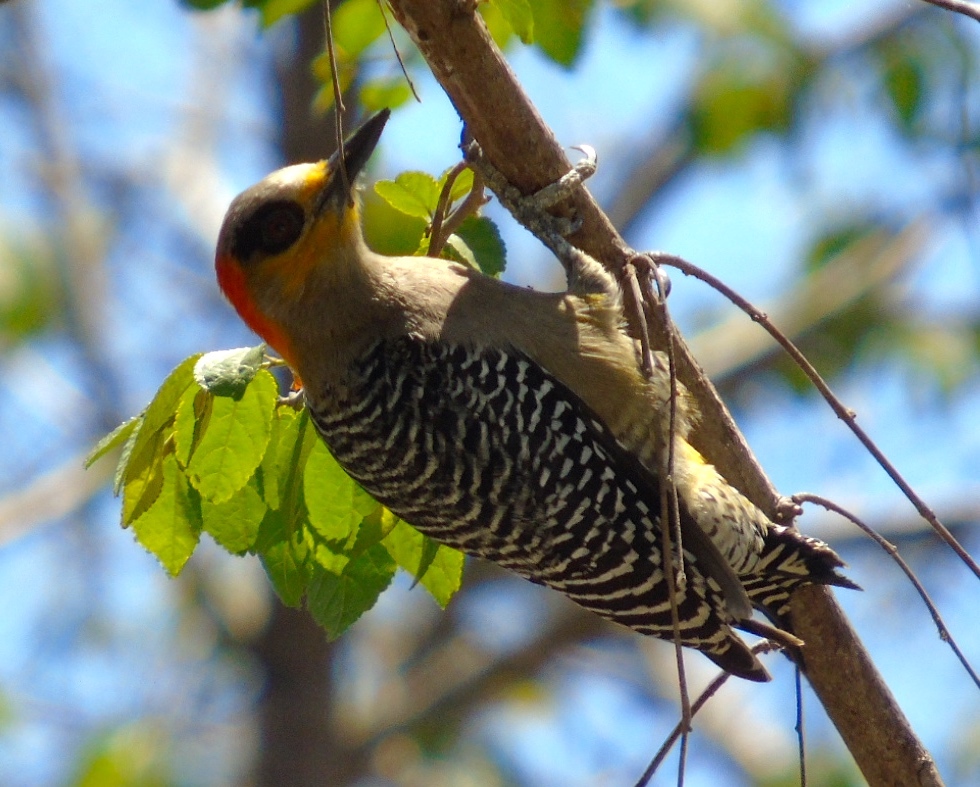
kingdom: Animalia
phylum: Chordata
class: Aves
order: Piciformes
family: Picidae
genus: Melanerpes
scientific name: Melanerpes chrysogenys
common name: Golden-cheeked woodpecker
